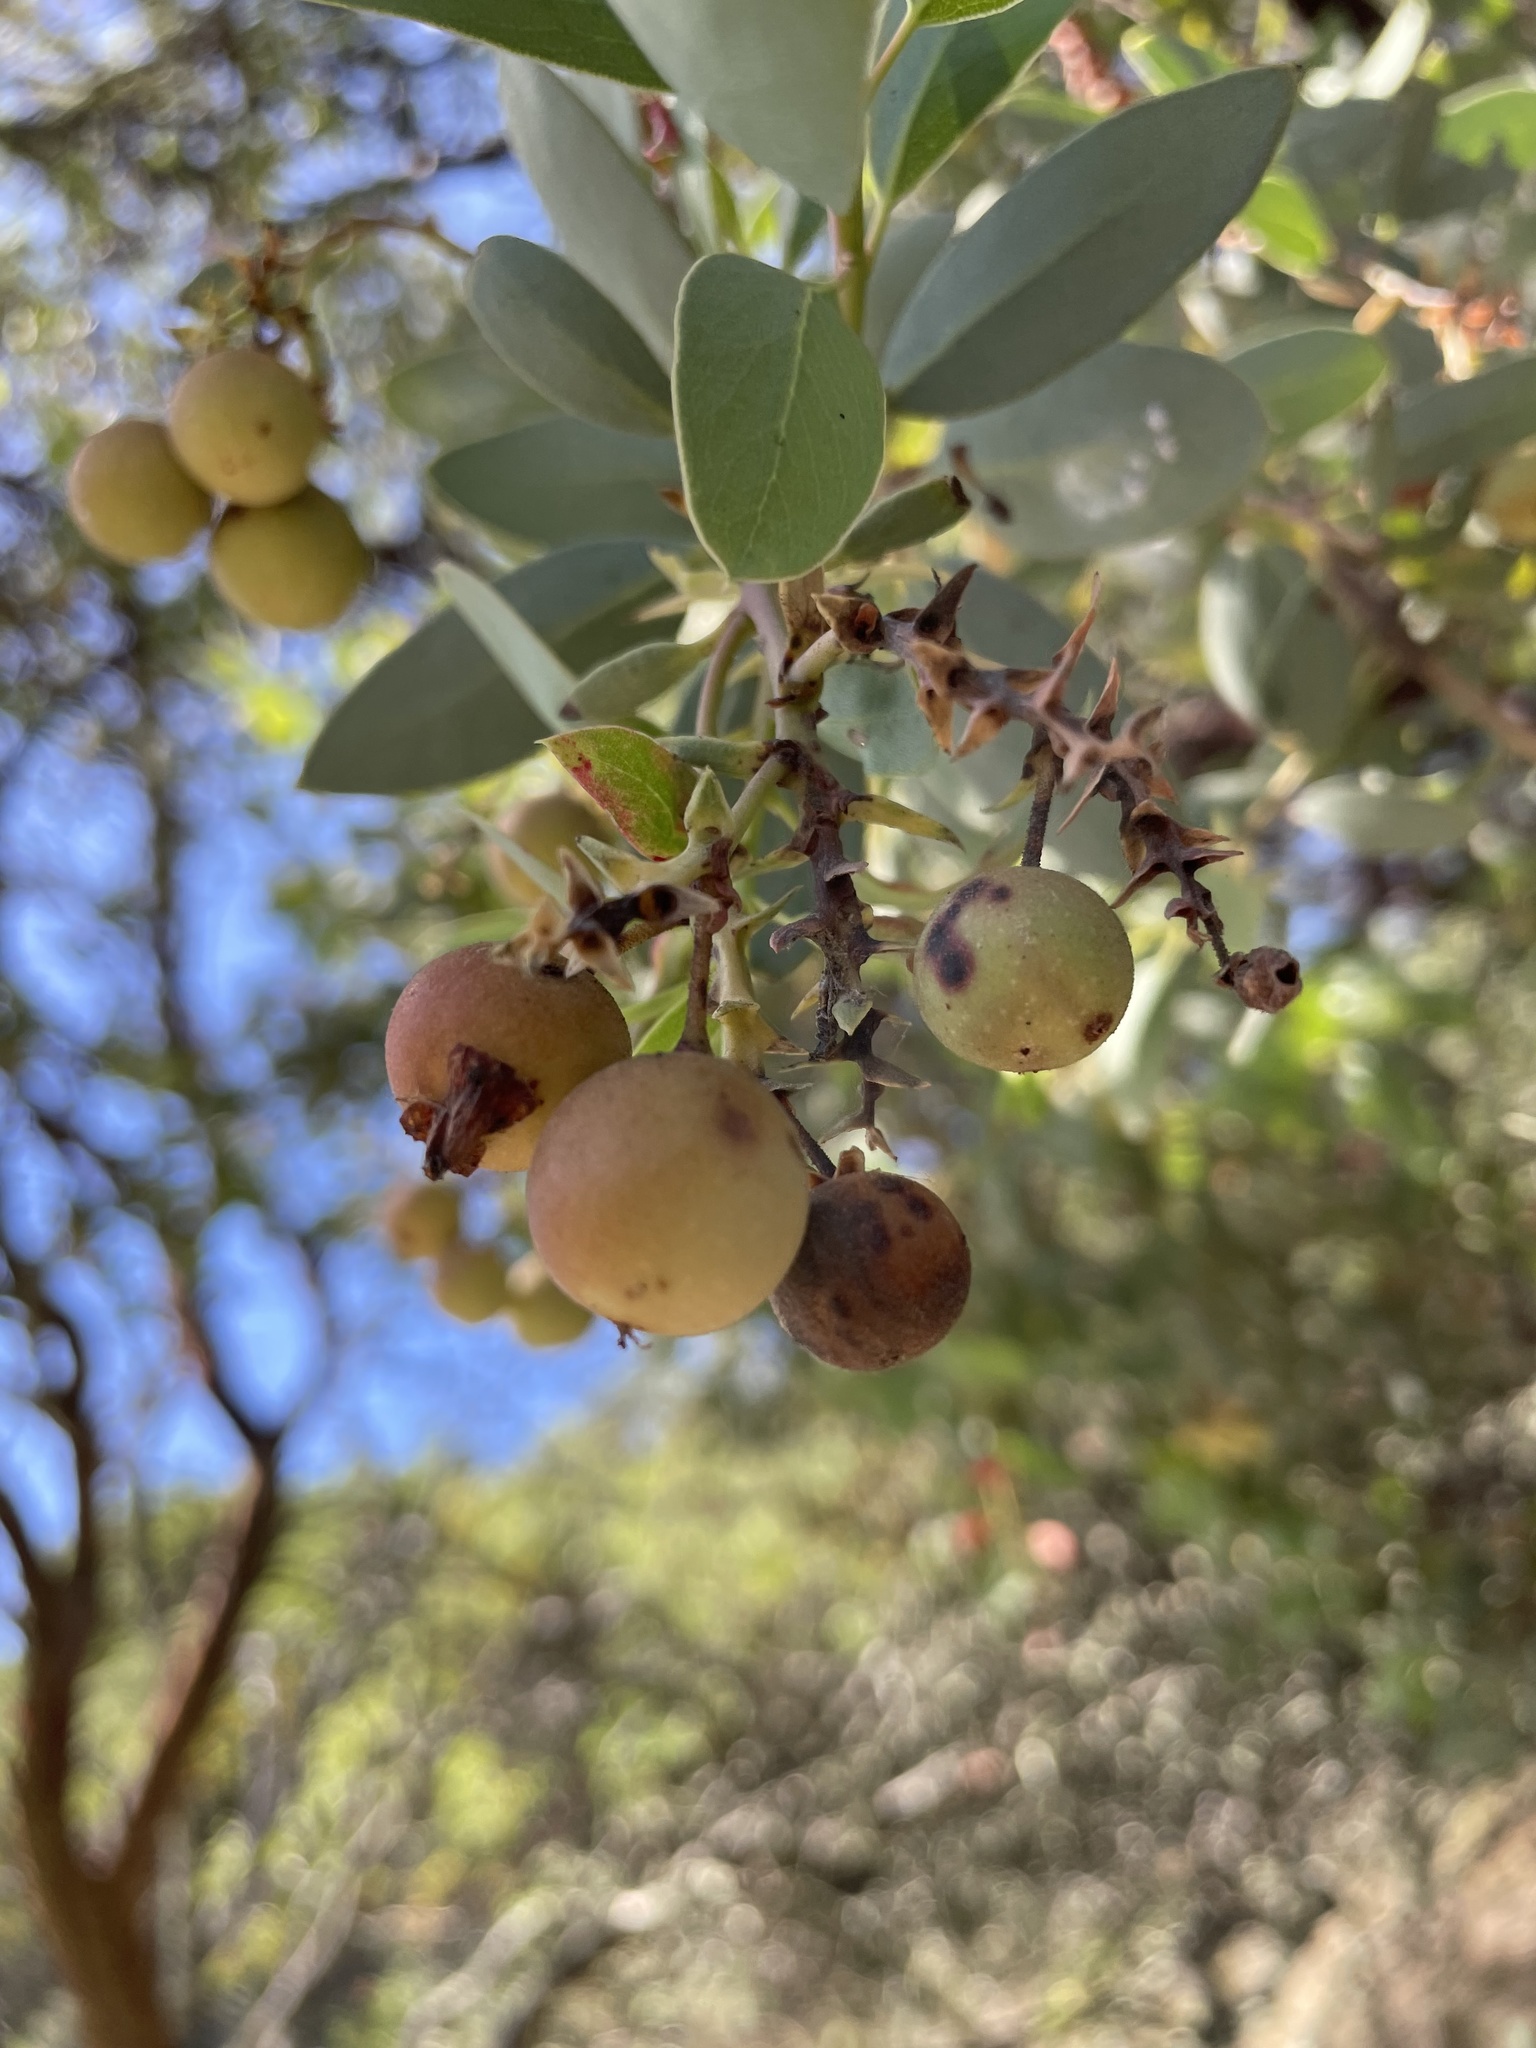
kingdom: Plantae
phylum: Tracheophyta
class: Magnoliopsida
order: Ericales
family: Ericaceae
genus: Arctostaphylos
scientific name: Arctostaphylos glauca
